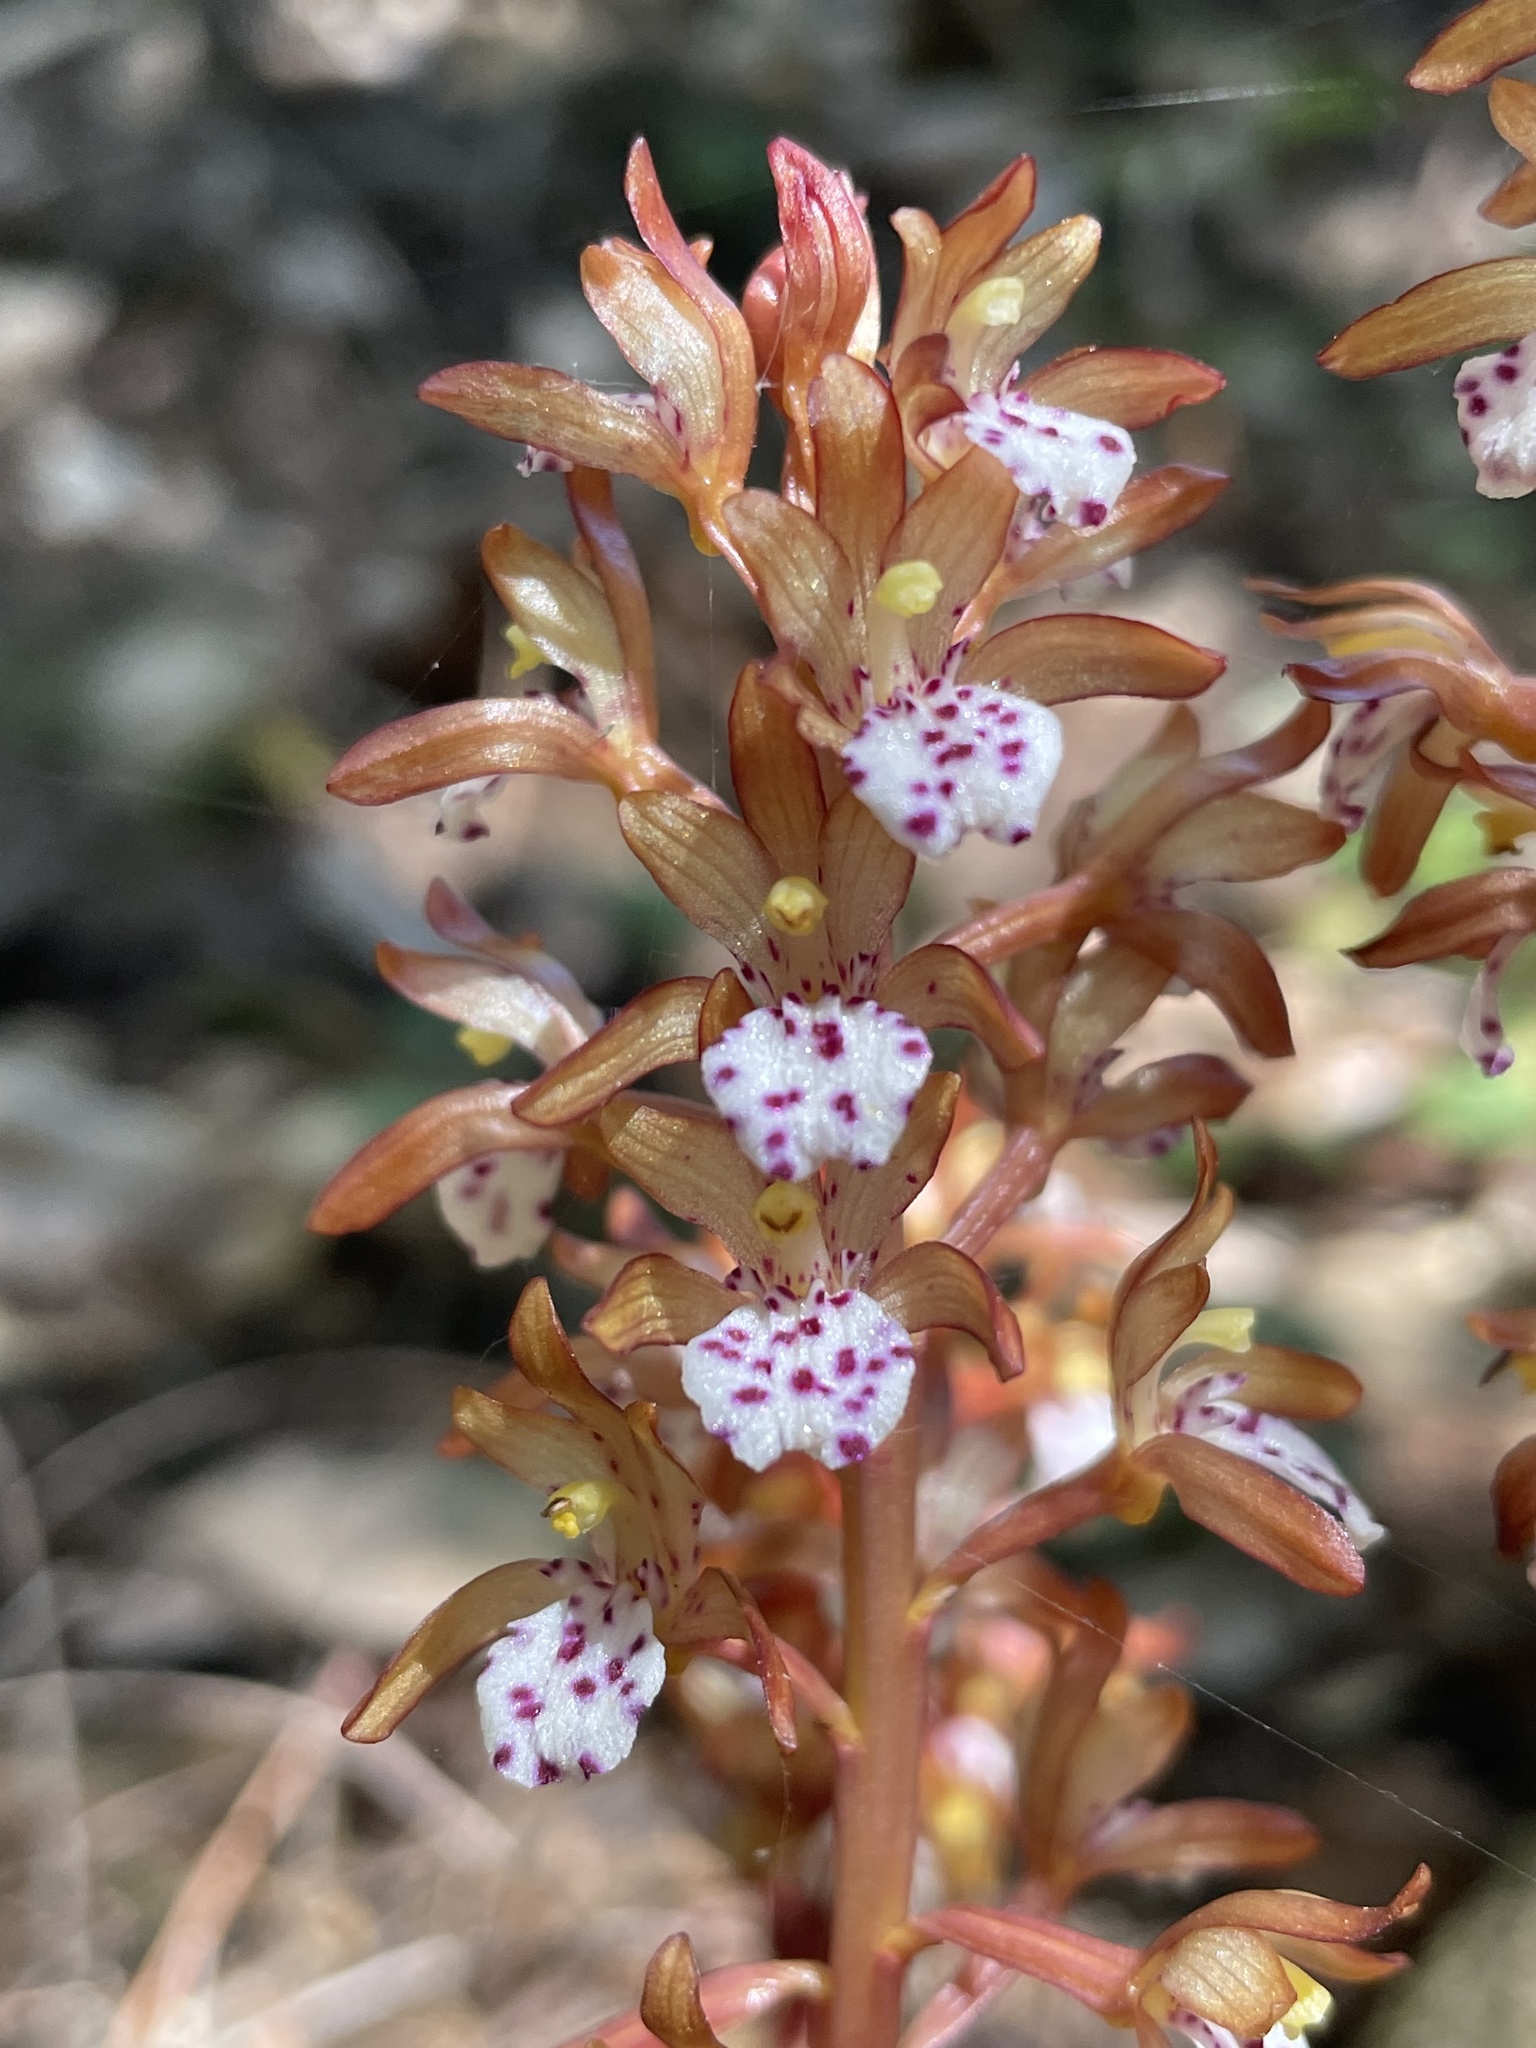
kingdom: Plantae
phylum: Tracheophyta
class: Liliopsida
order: Asparagales
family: Orchidaceae
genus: Corallorhiza
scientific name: Corallorhiza maculata
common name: Spotted coralroot
